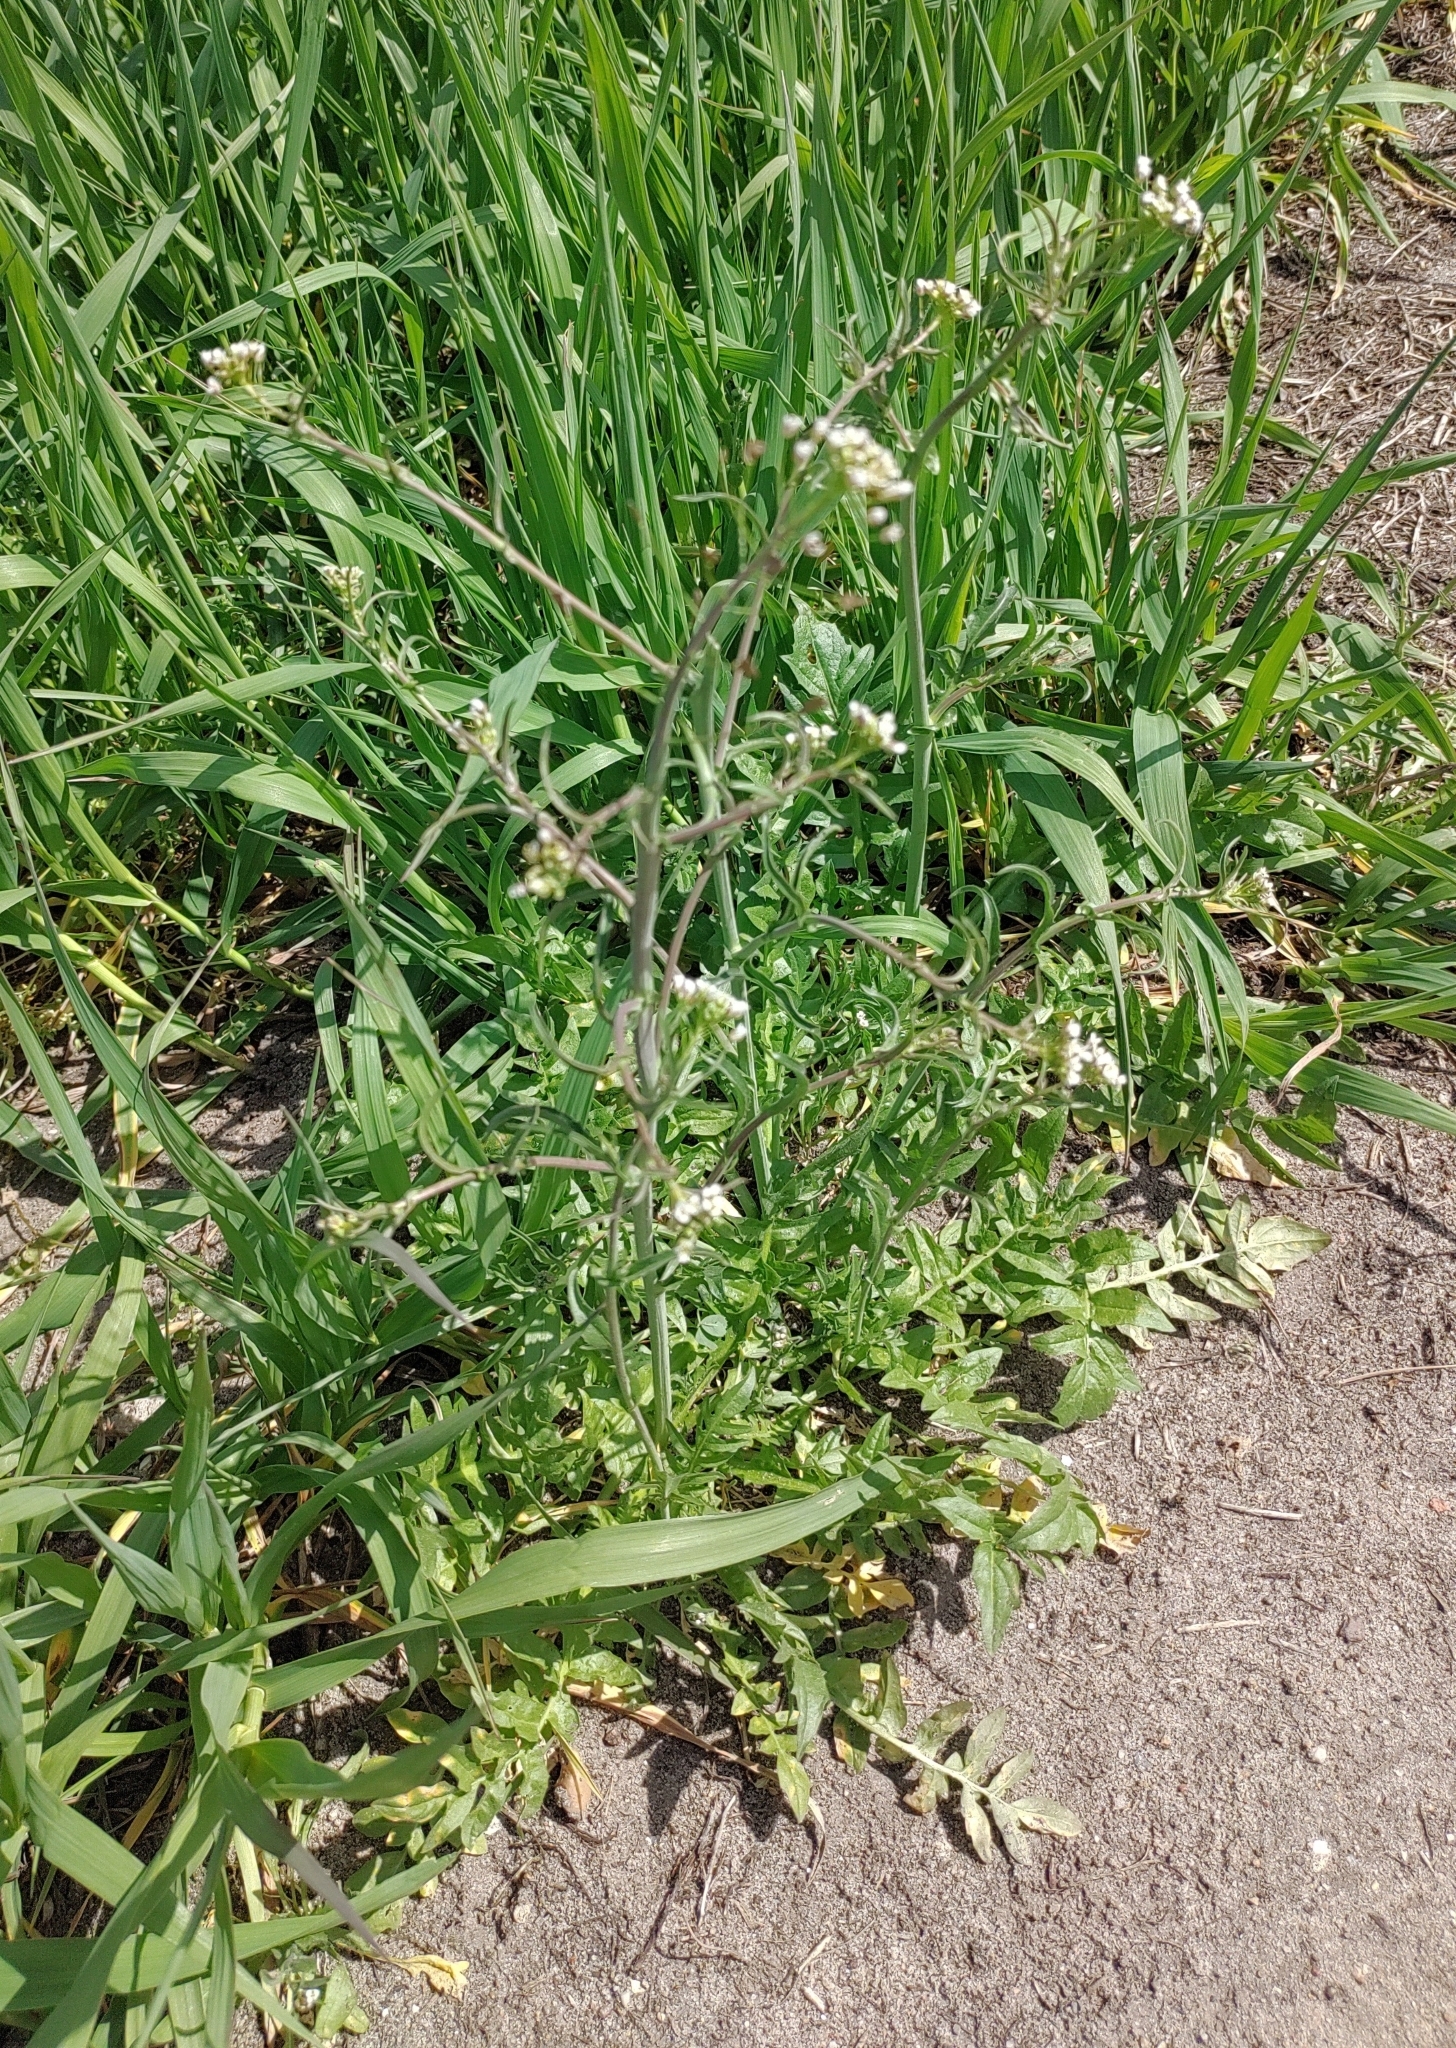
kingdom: Plantae
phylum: Tracheophyta
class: Magnoliopsida
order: Brassicales
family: Brassicaceae
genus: Capsella
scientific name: Capsella bursa-pastoris
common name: Shepherd's purse
